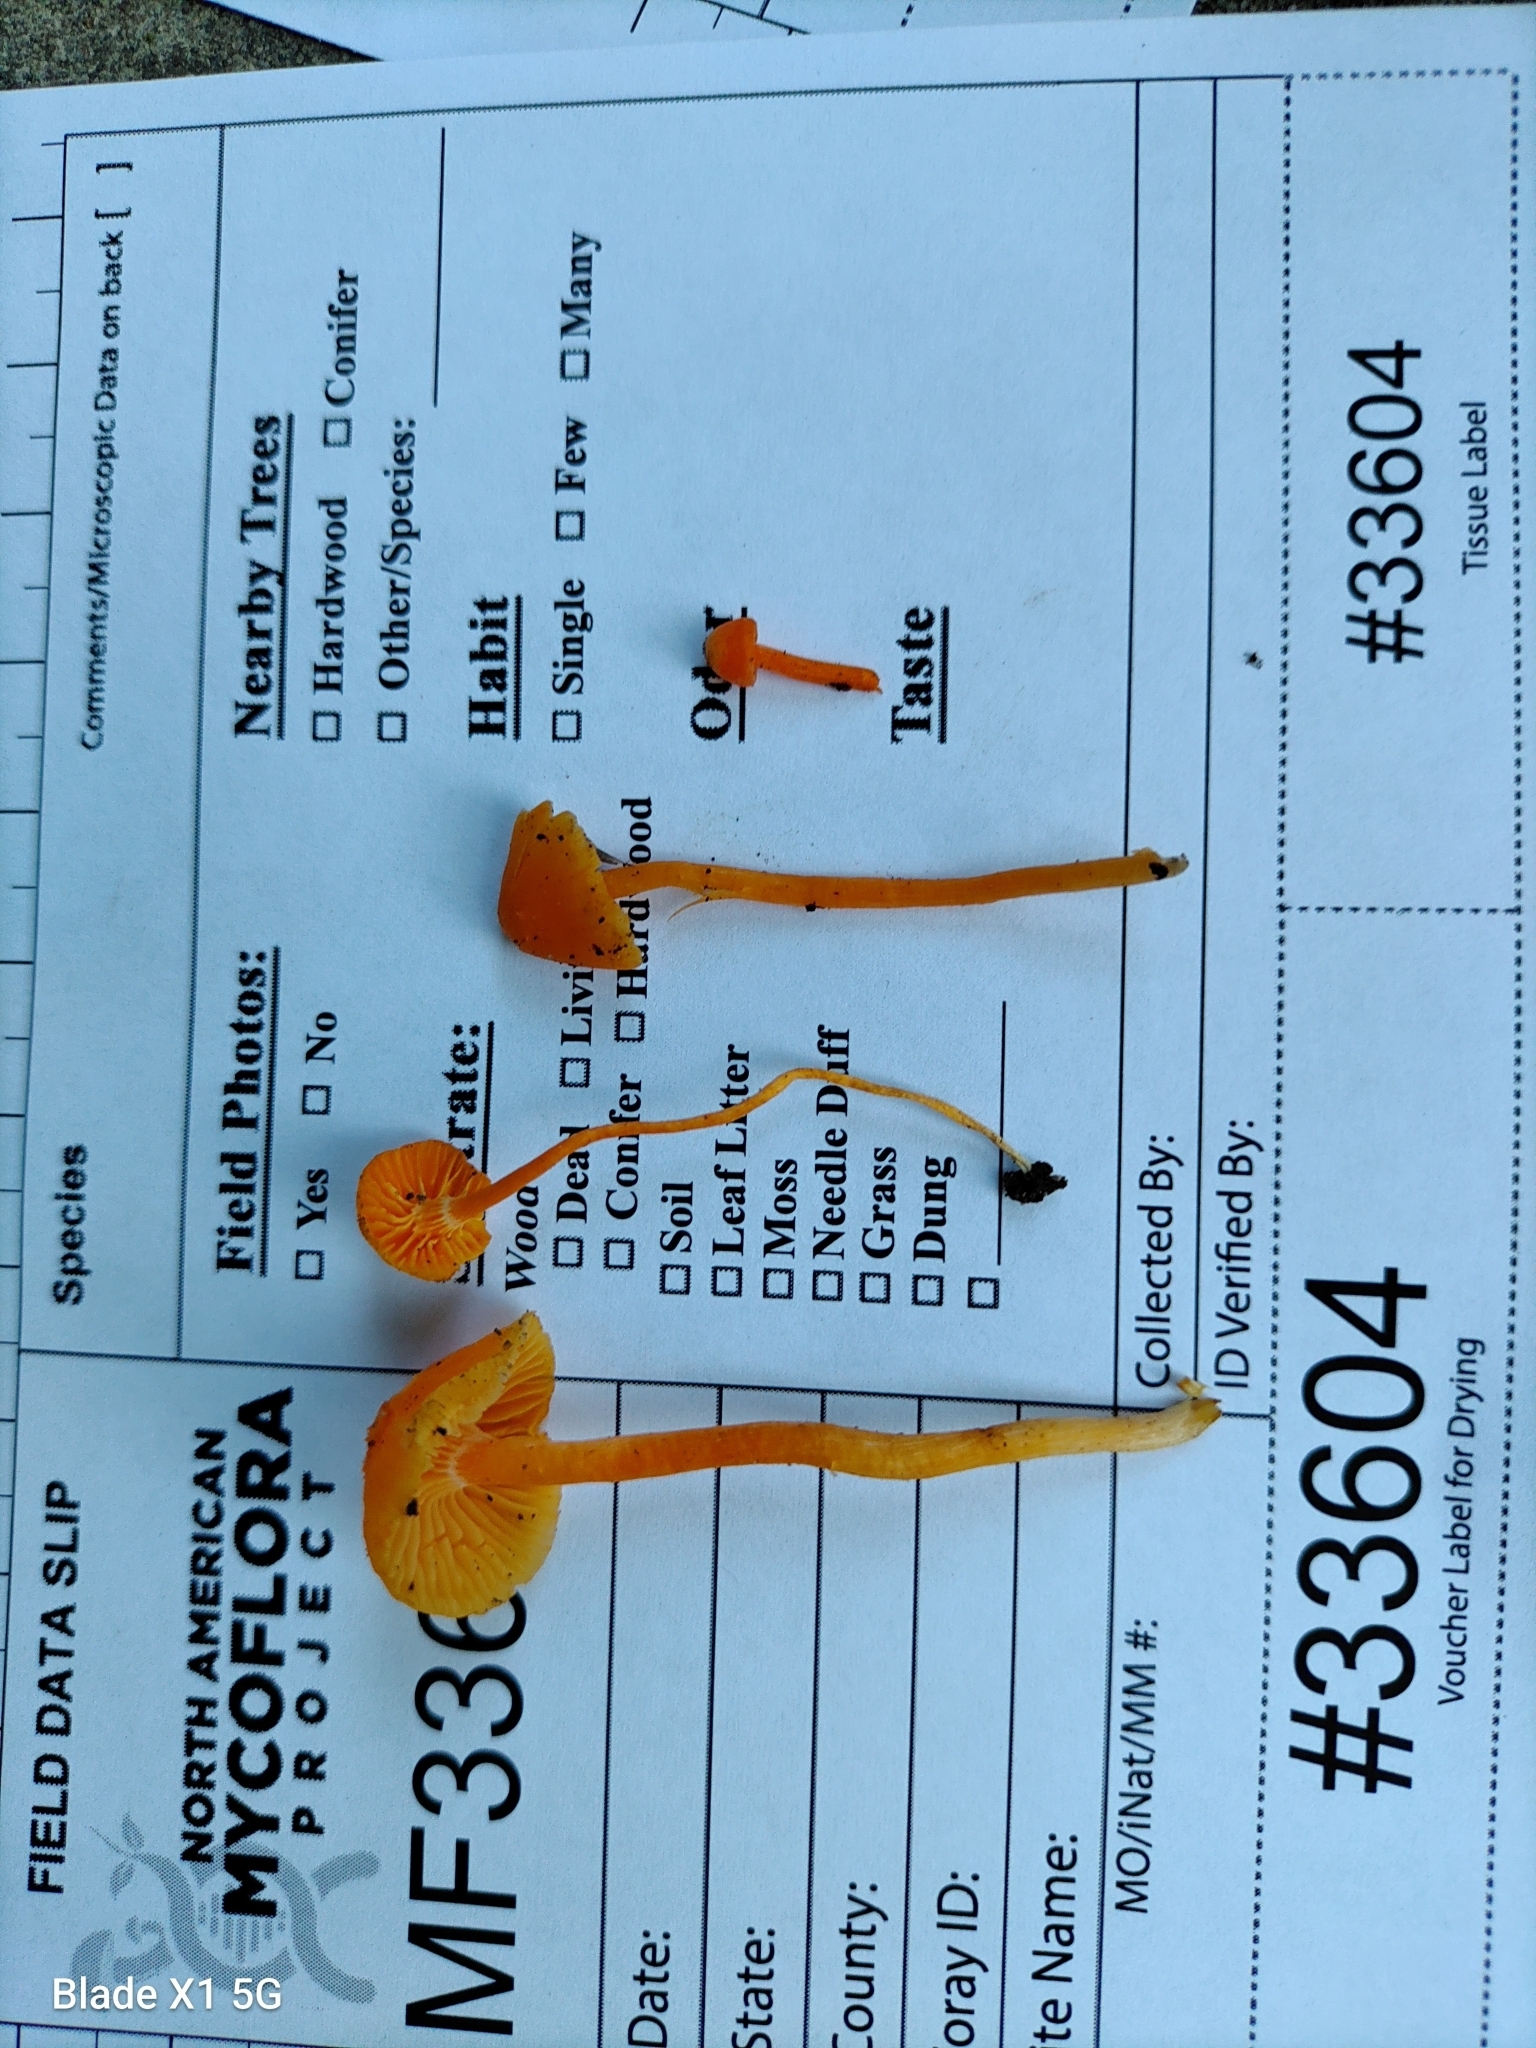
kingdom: Fungi
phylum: Ascomycota
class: Sordariomycetes
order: Hypocreales
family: Nectriaceae
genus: Fusarium
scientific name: Fusarium sporotrichioides
